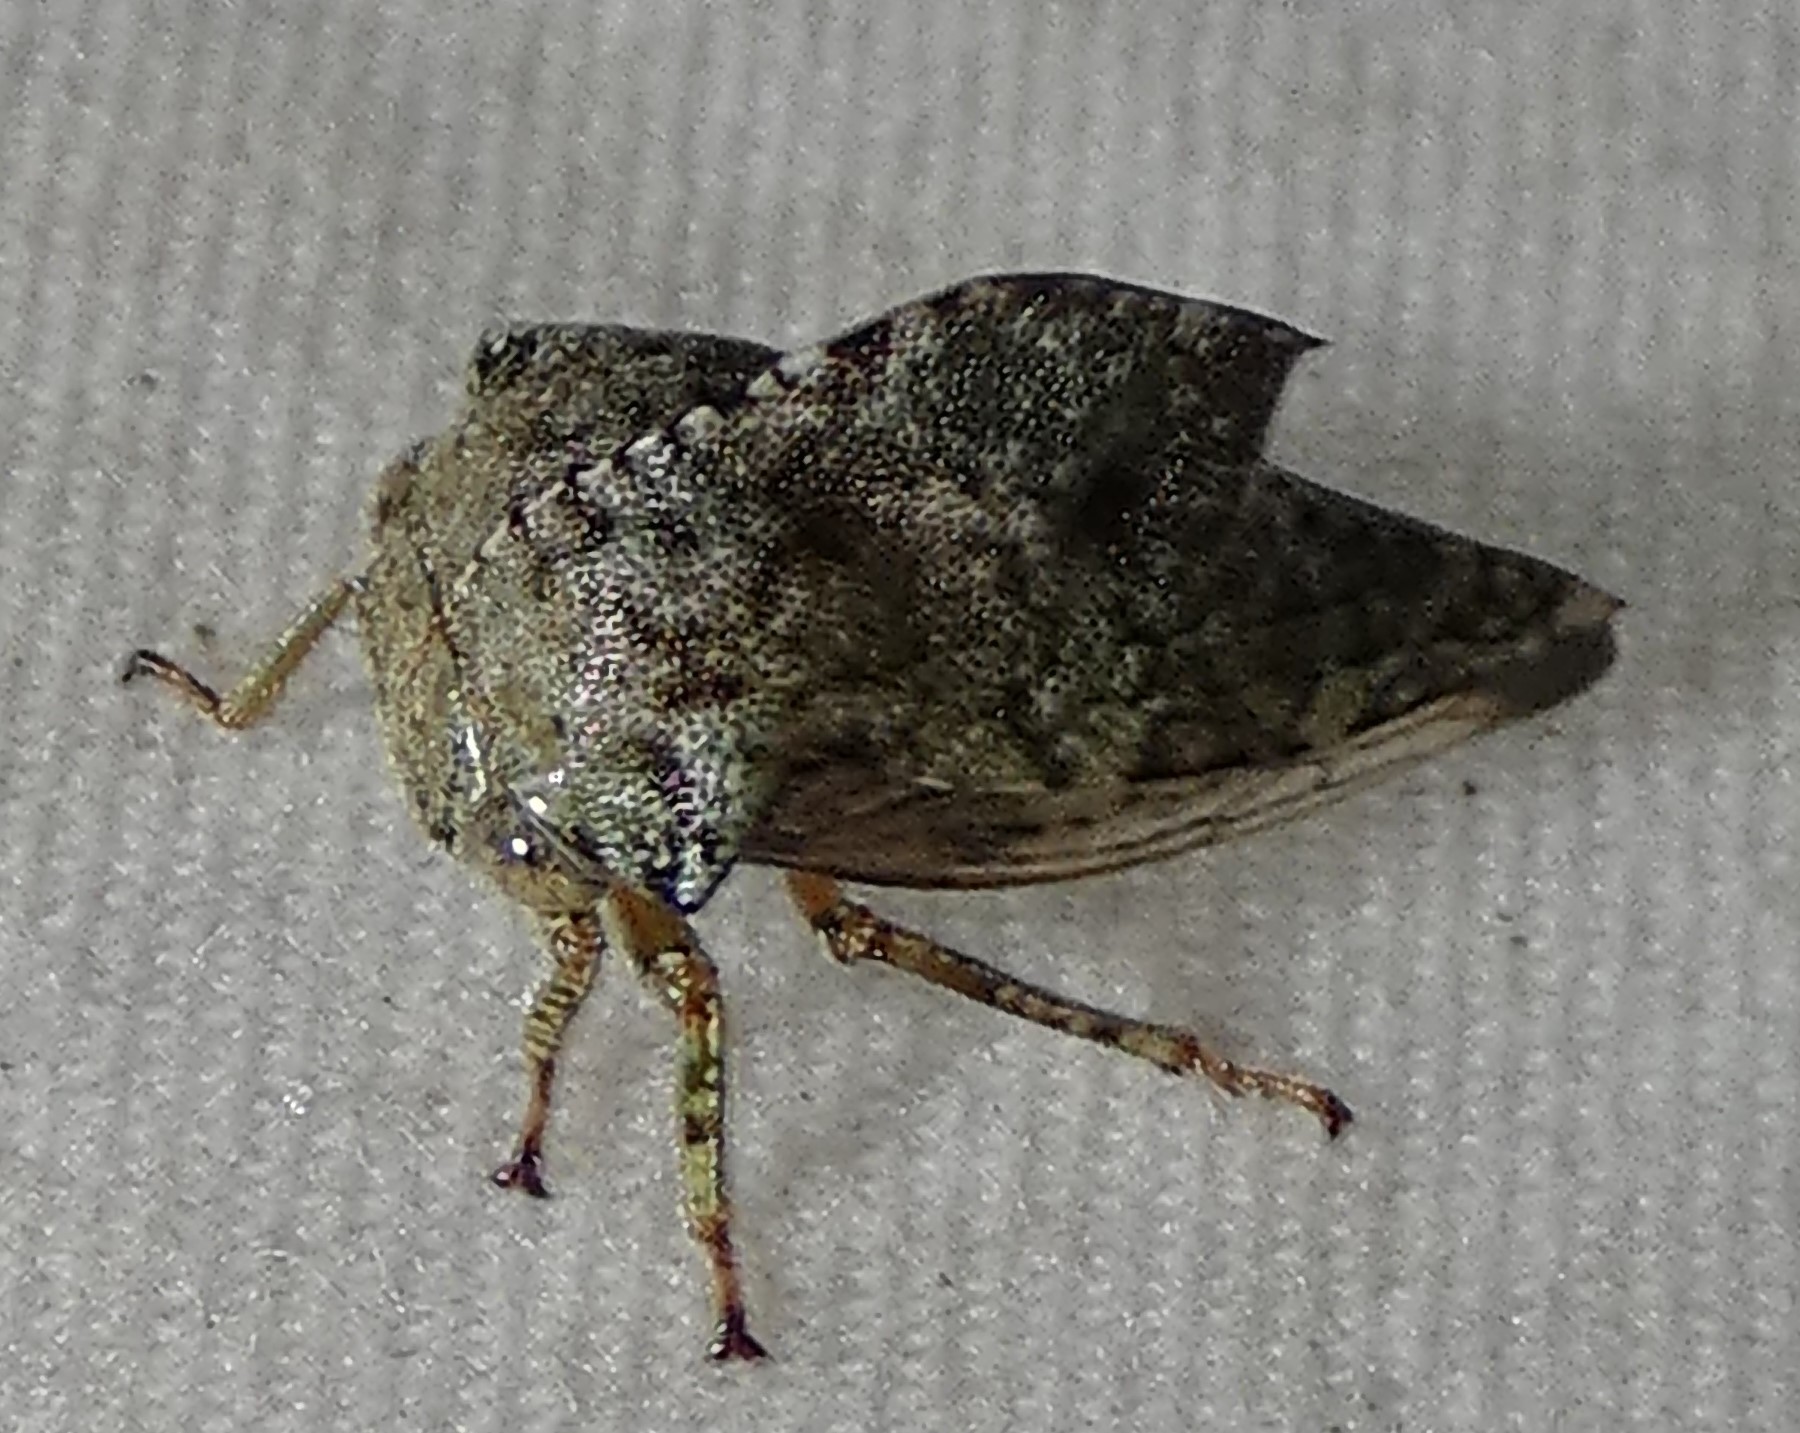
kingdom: Animalia
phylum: Arthropoda
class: Insecta
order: Hemiptera
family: Membracidae
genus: Telamona
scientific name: Telamona
